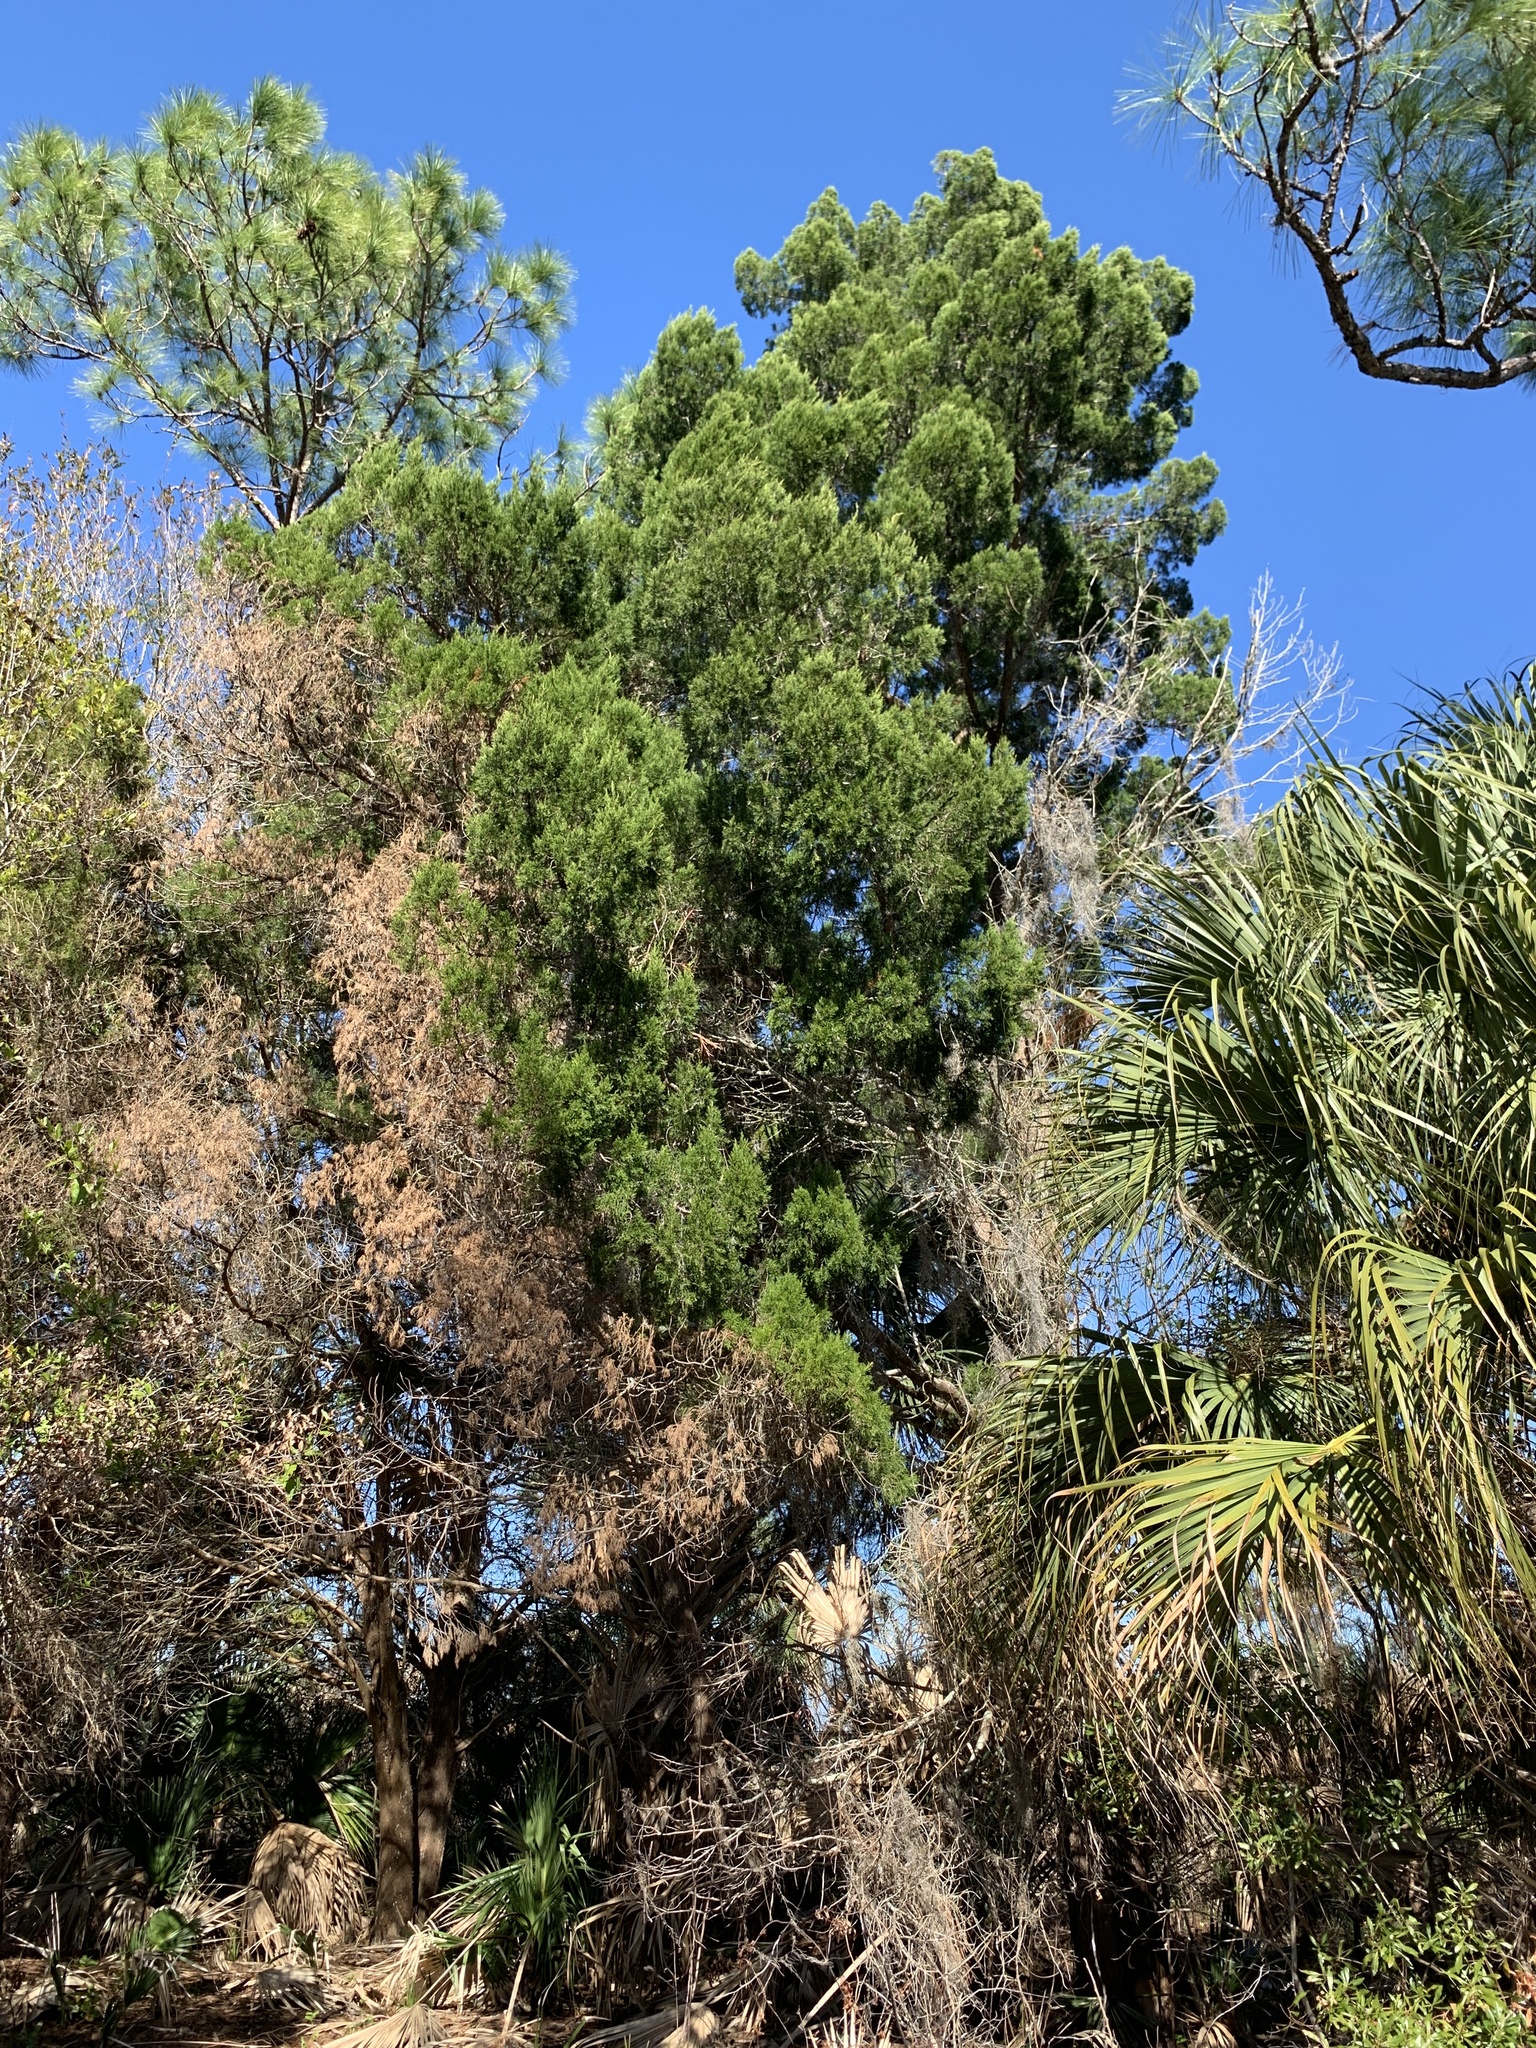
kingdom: Plantae
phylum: Tracheophyta
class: Pinopsida
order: Pinales
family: Cupressaceae
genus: Juniperus
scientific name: Juniperus virginiana
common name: Red juniper
